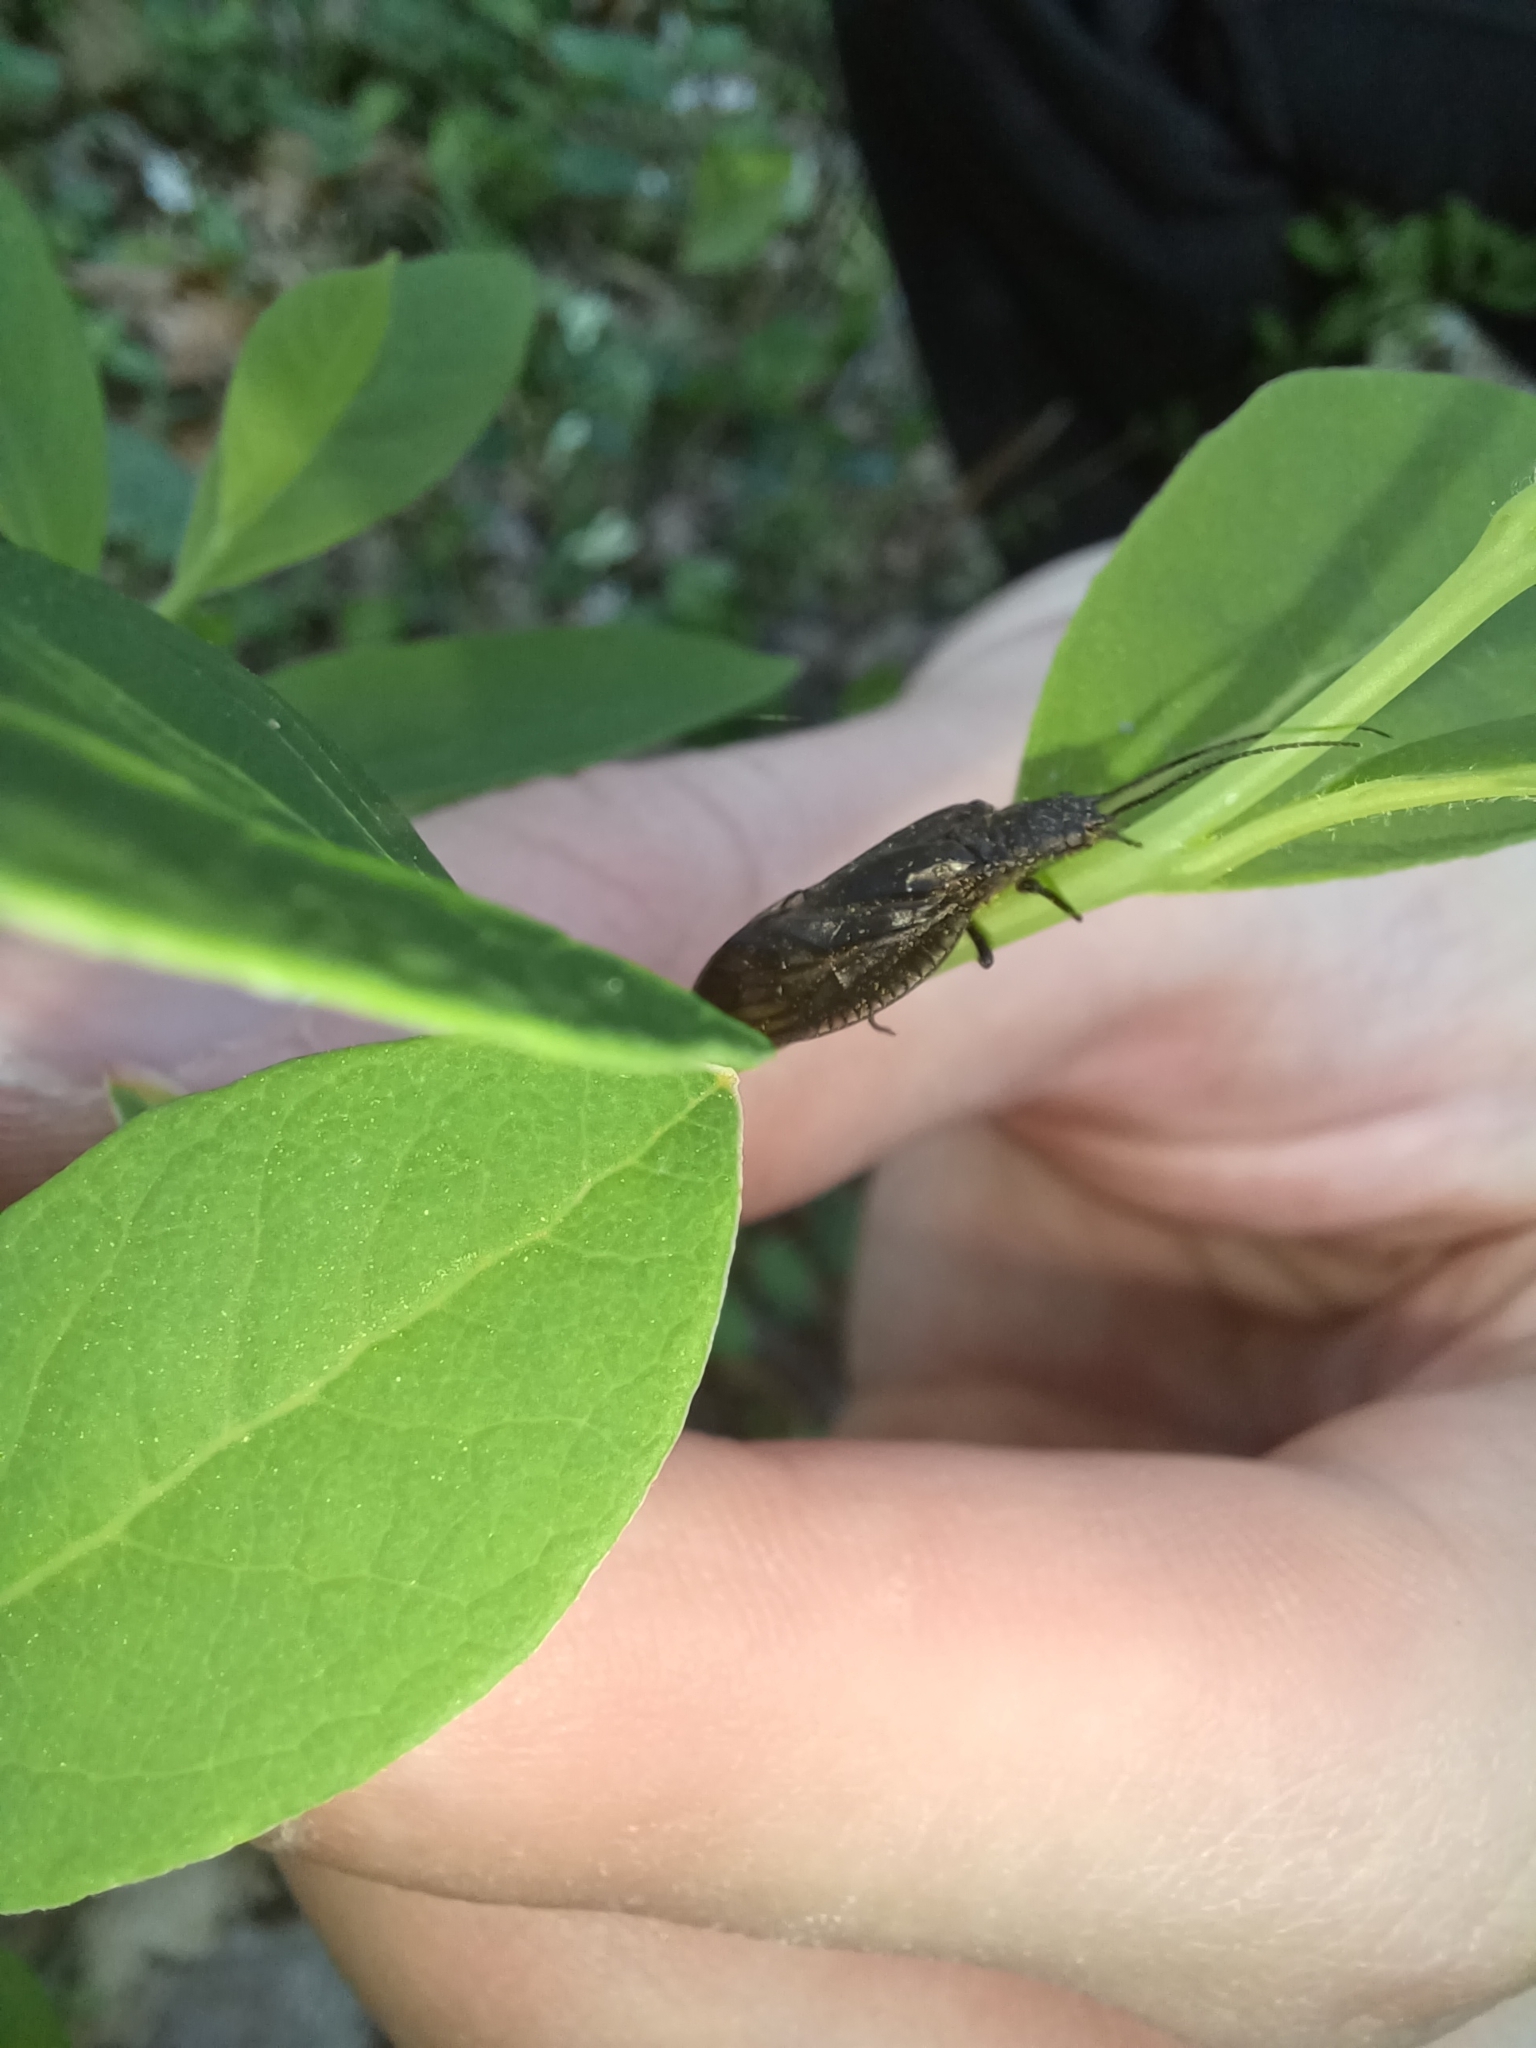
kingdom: Animalia
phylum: Arthropoda
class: Insecta
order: Megaloptera
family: Sialidae
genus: Sialis
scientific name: Sialis
